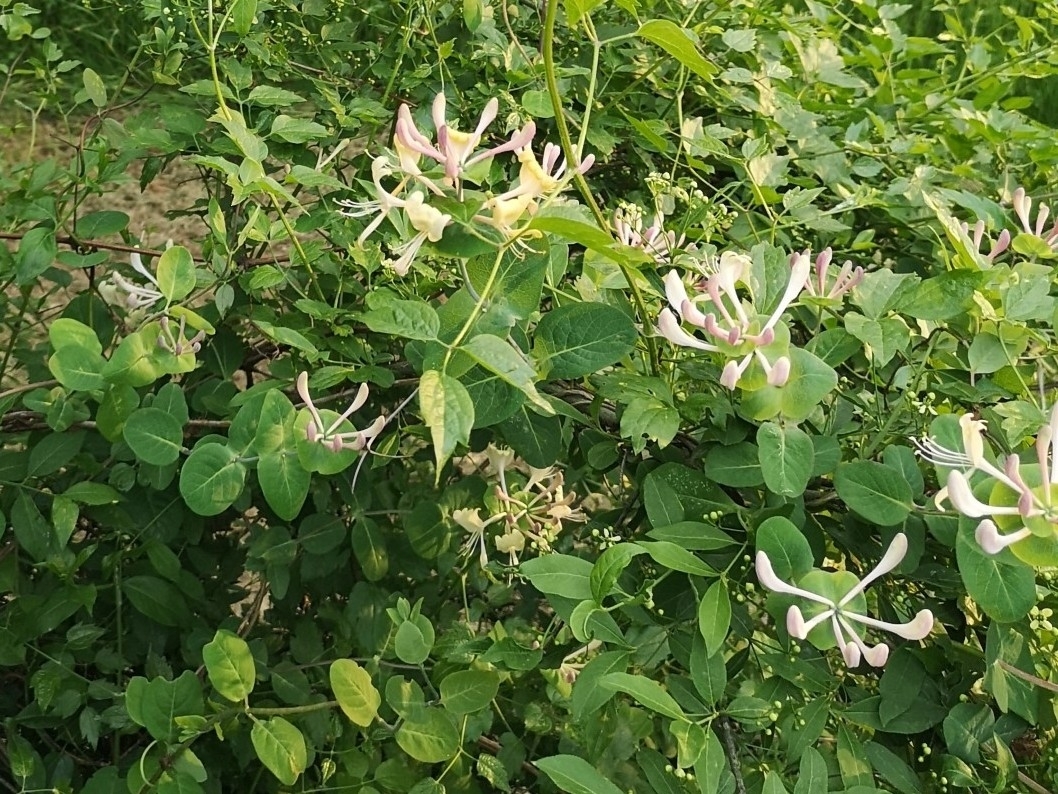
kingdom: Plantae
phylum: Tracheophyta
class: Magnoliopsida
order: Dipsacales
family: Caprifoliaceae
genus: Lonicera
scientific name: Lonicera caprifolium
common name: Perfoliate honeysuckle
